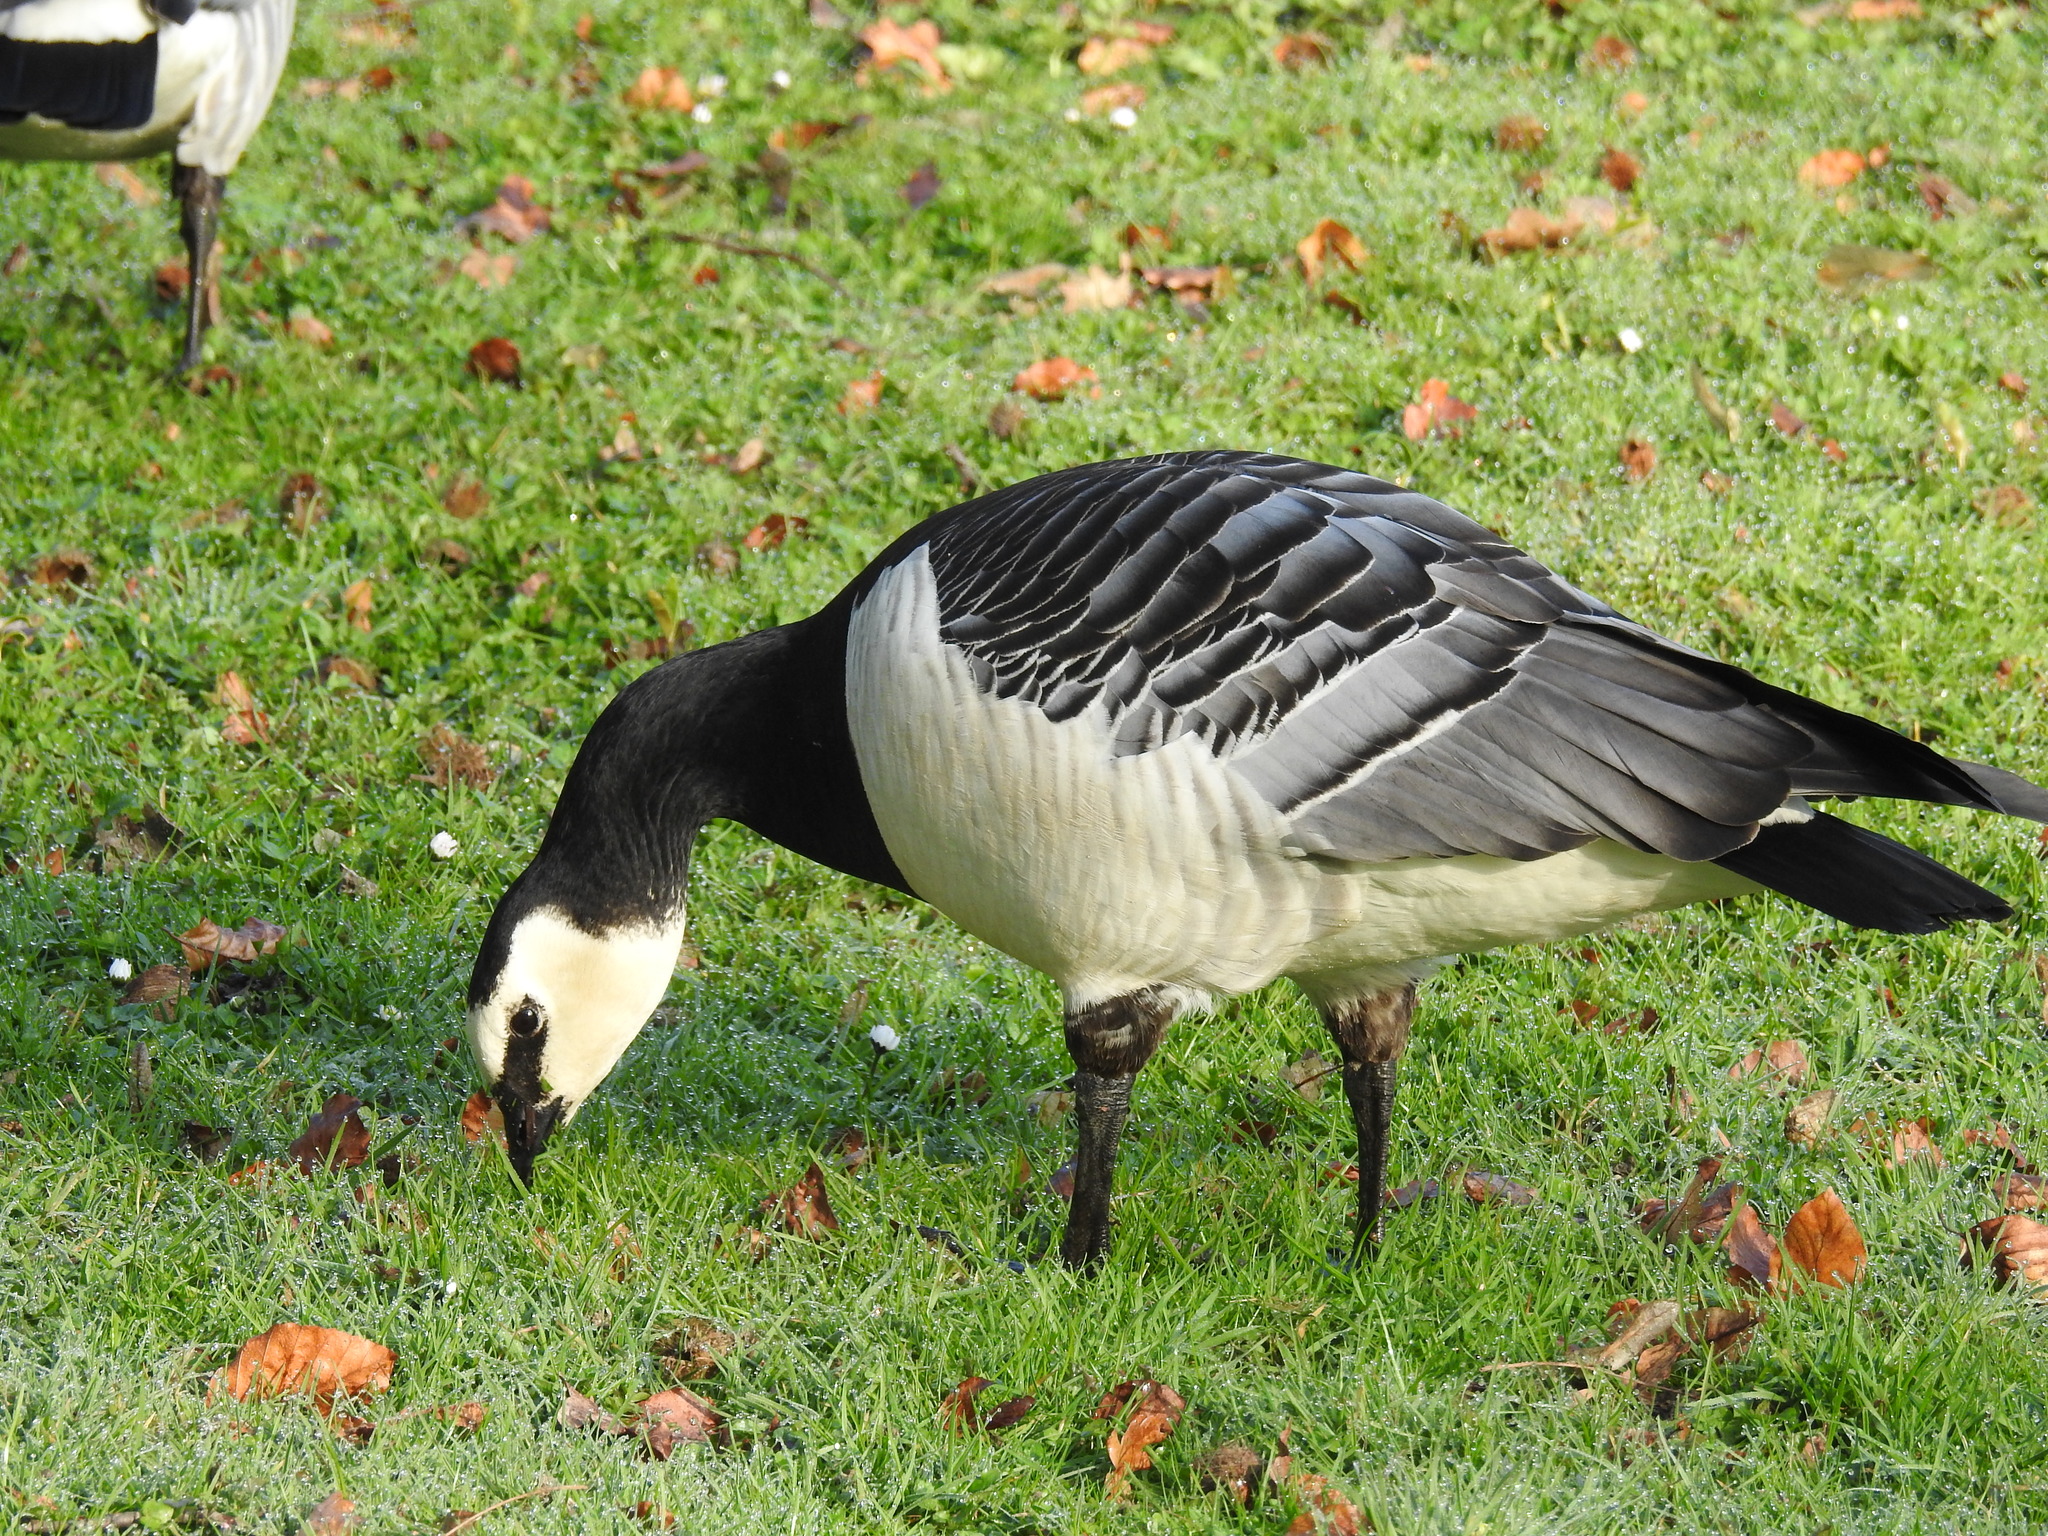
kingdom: Animalia
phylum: Chordata
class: Aves
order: Anseriformes
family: Anatidae
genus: Branta
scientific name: Branta leucopsis
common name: Barnacle goose
